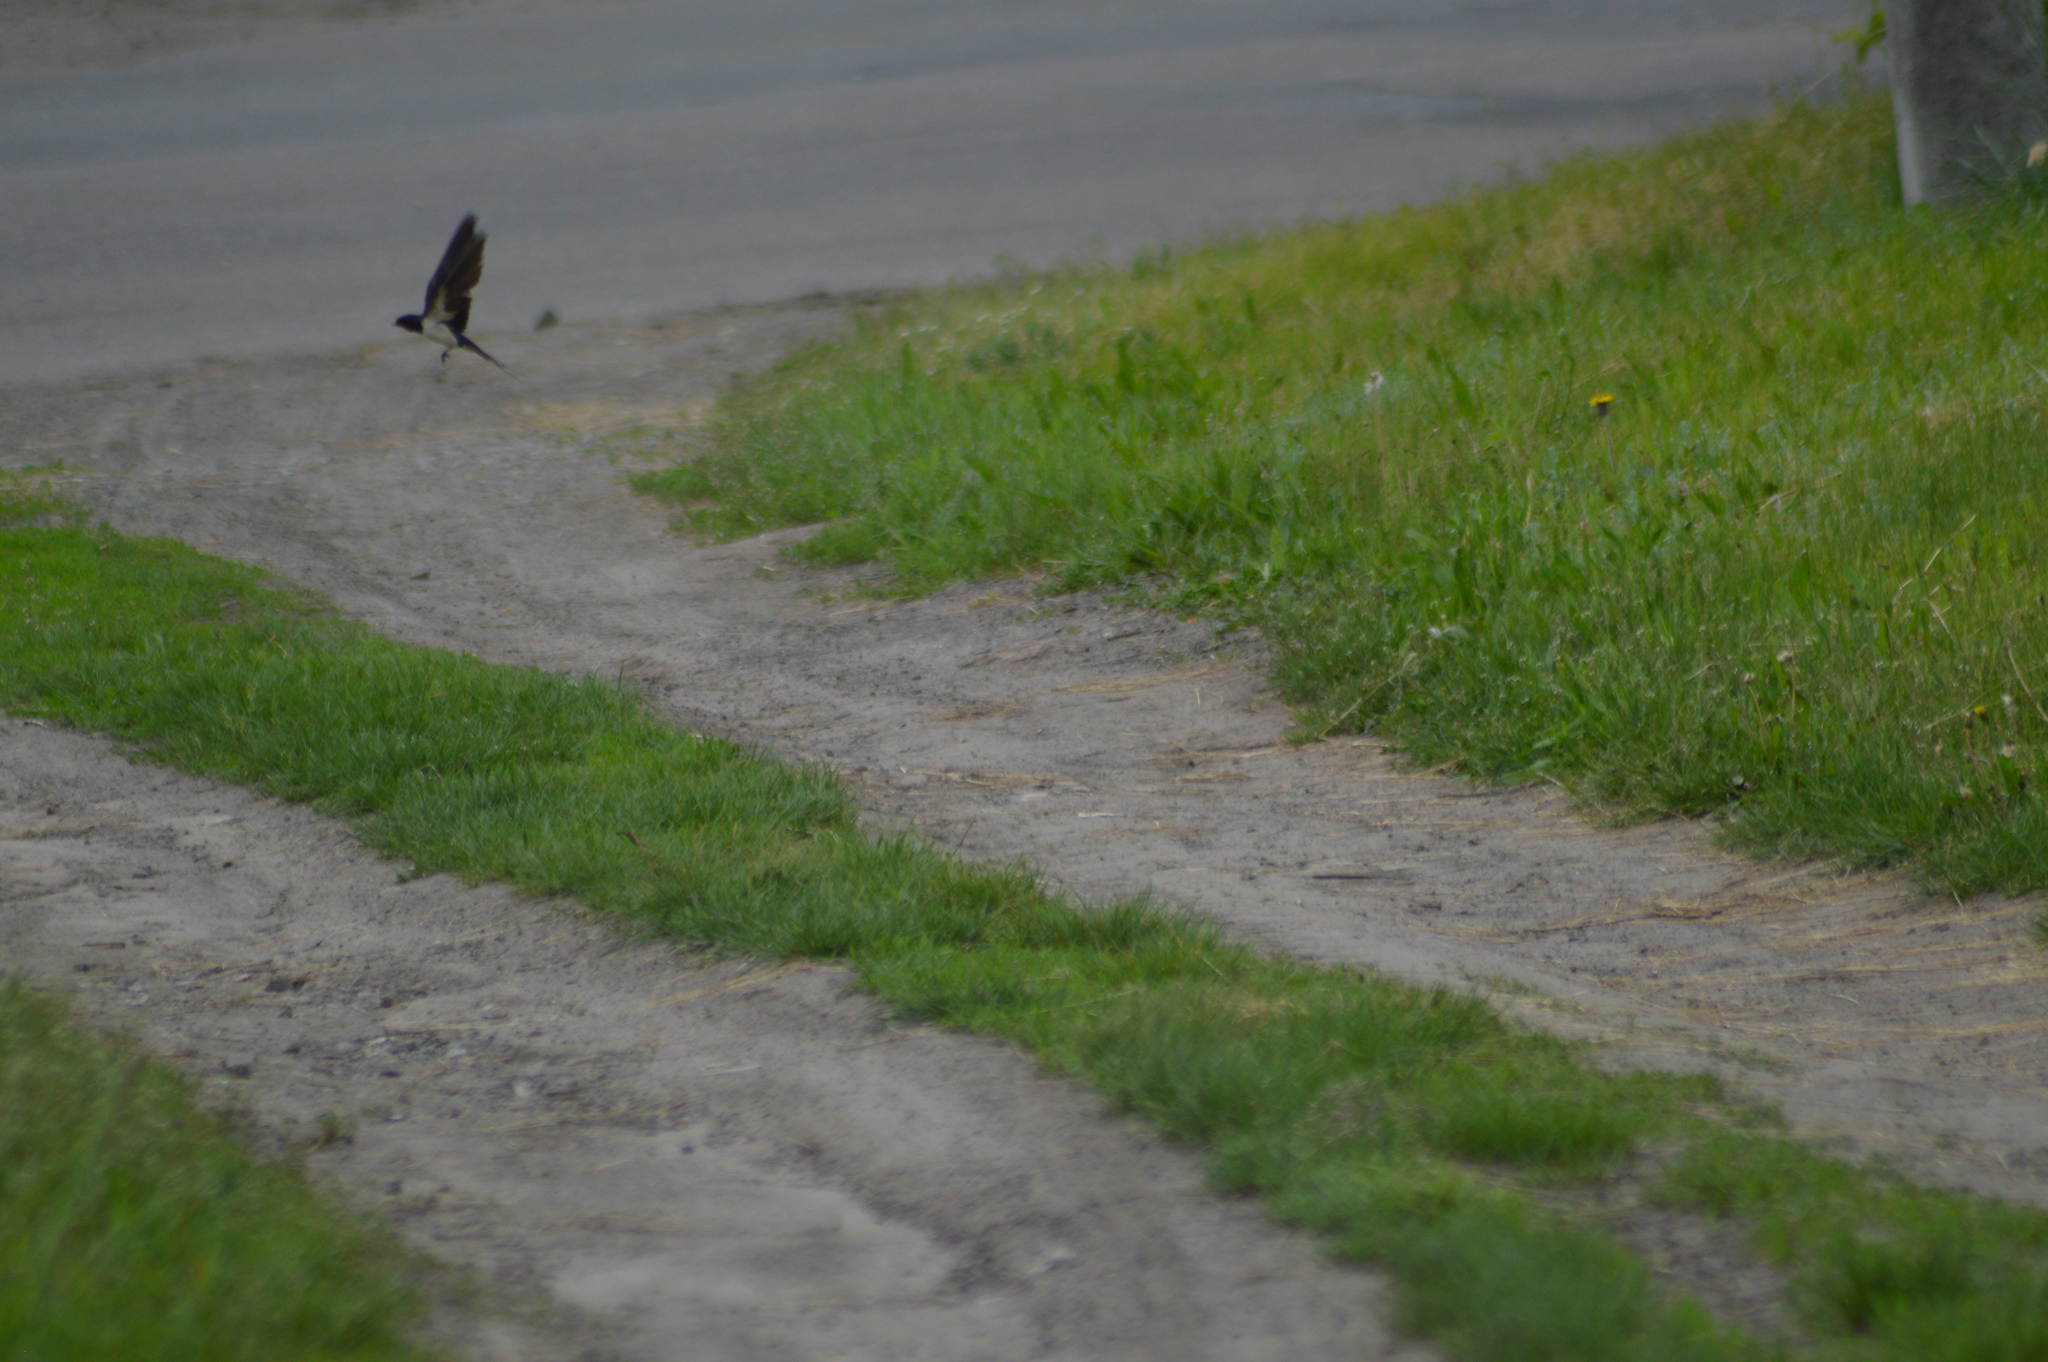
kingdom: Animalia
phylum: Chordata
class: Aves
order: Passeriformes
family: Hirundinidae
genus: Hirundo
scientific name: Hirundo rustica
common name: Barn swallow
